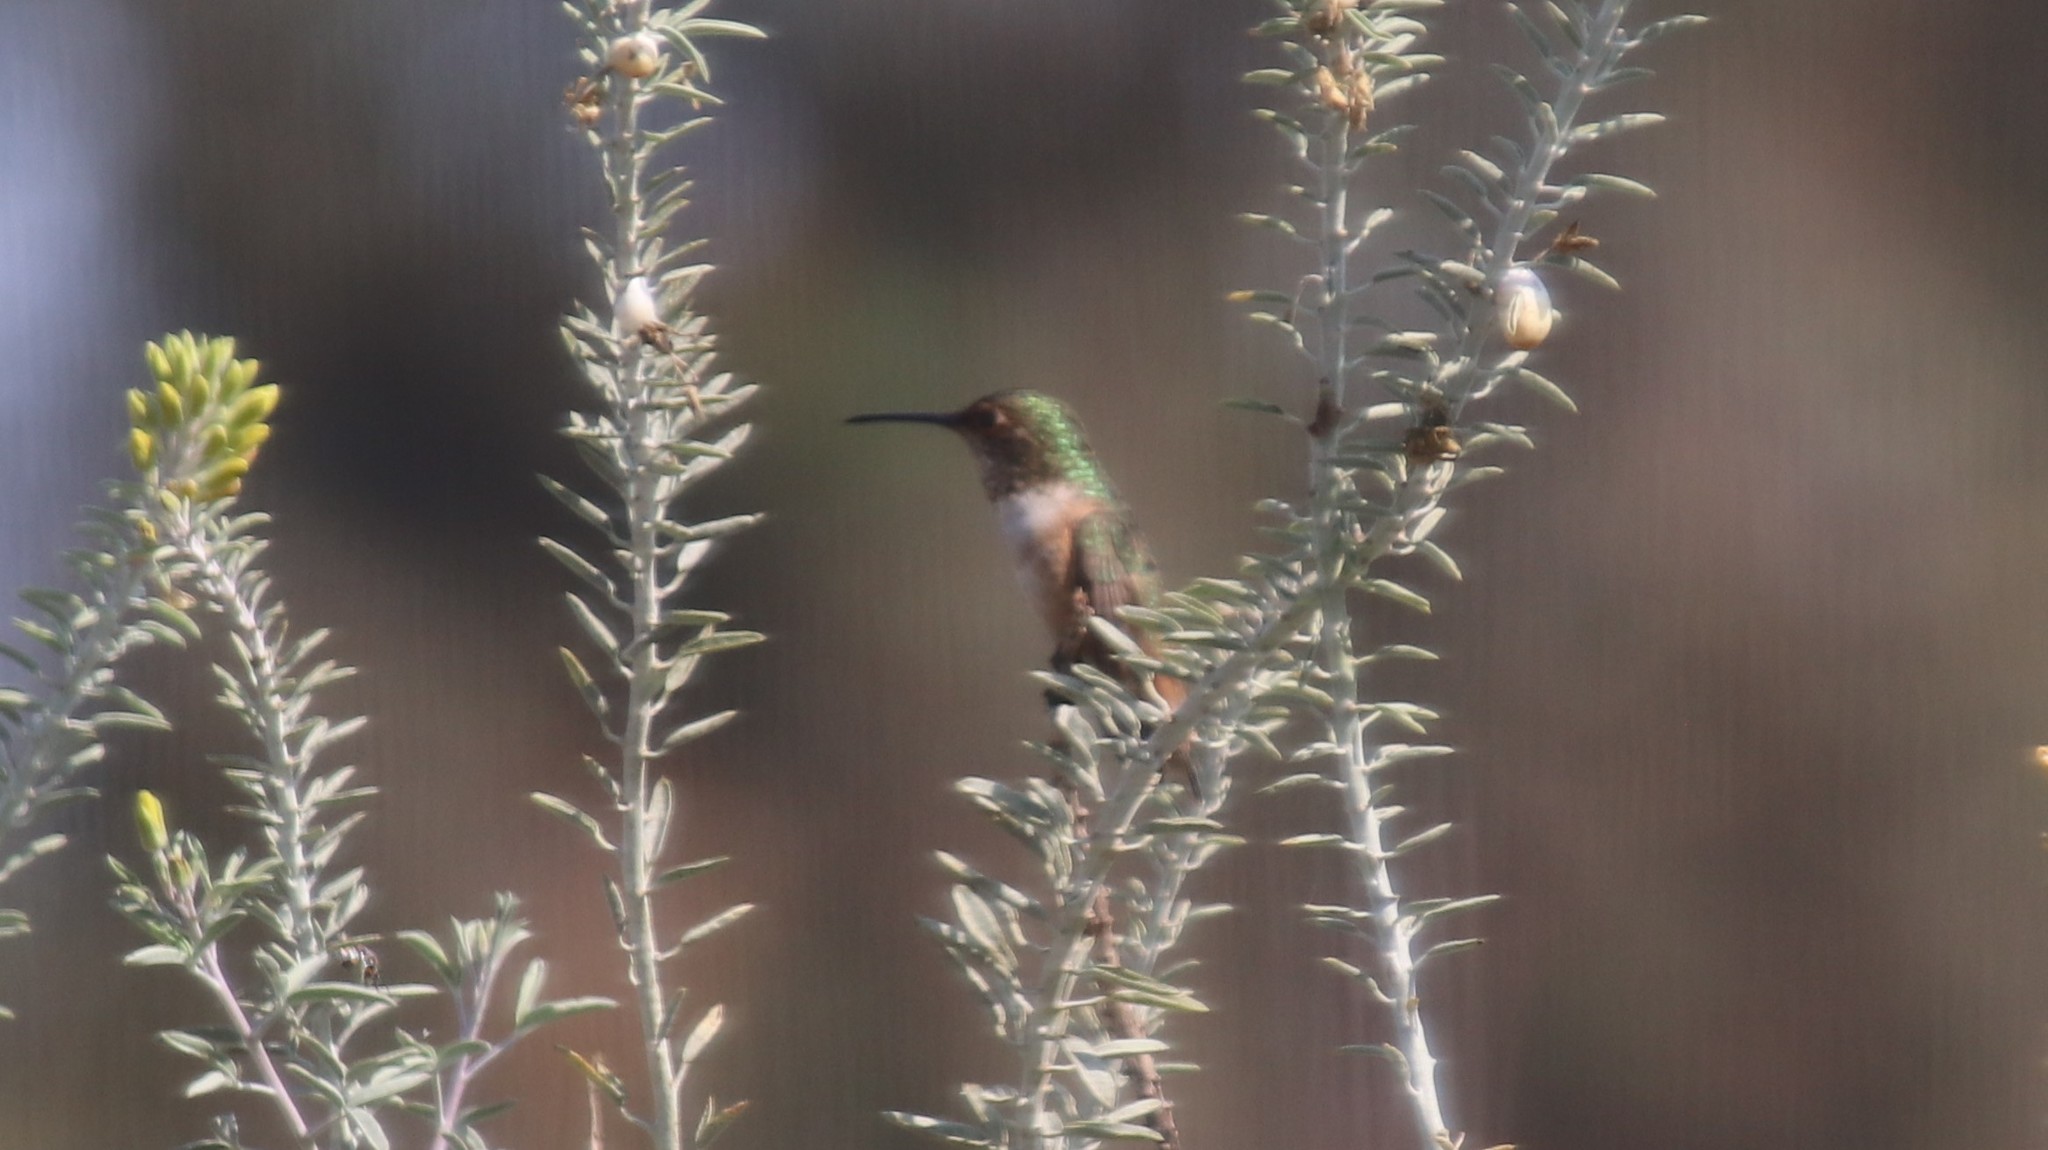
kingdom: Animalia
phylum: Chordata
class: Aves
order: Apodiformes
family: Trochilidae
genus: Selasphorus
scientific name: Selasphorus
